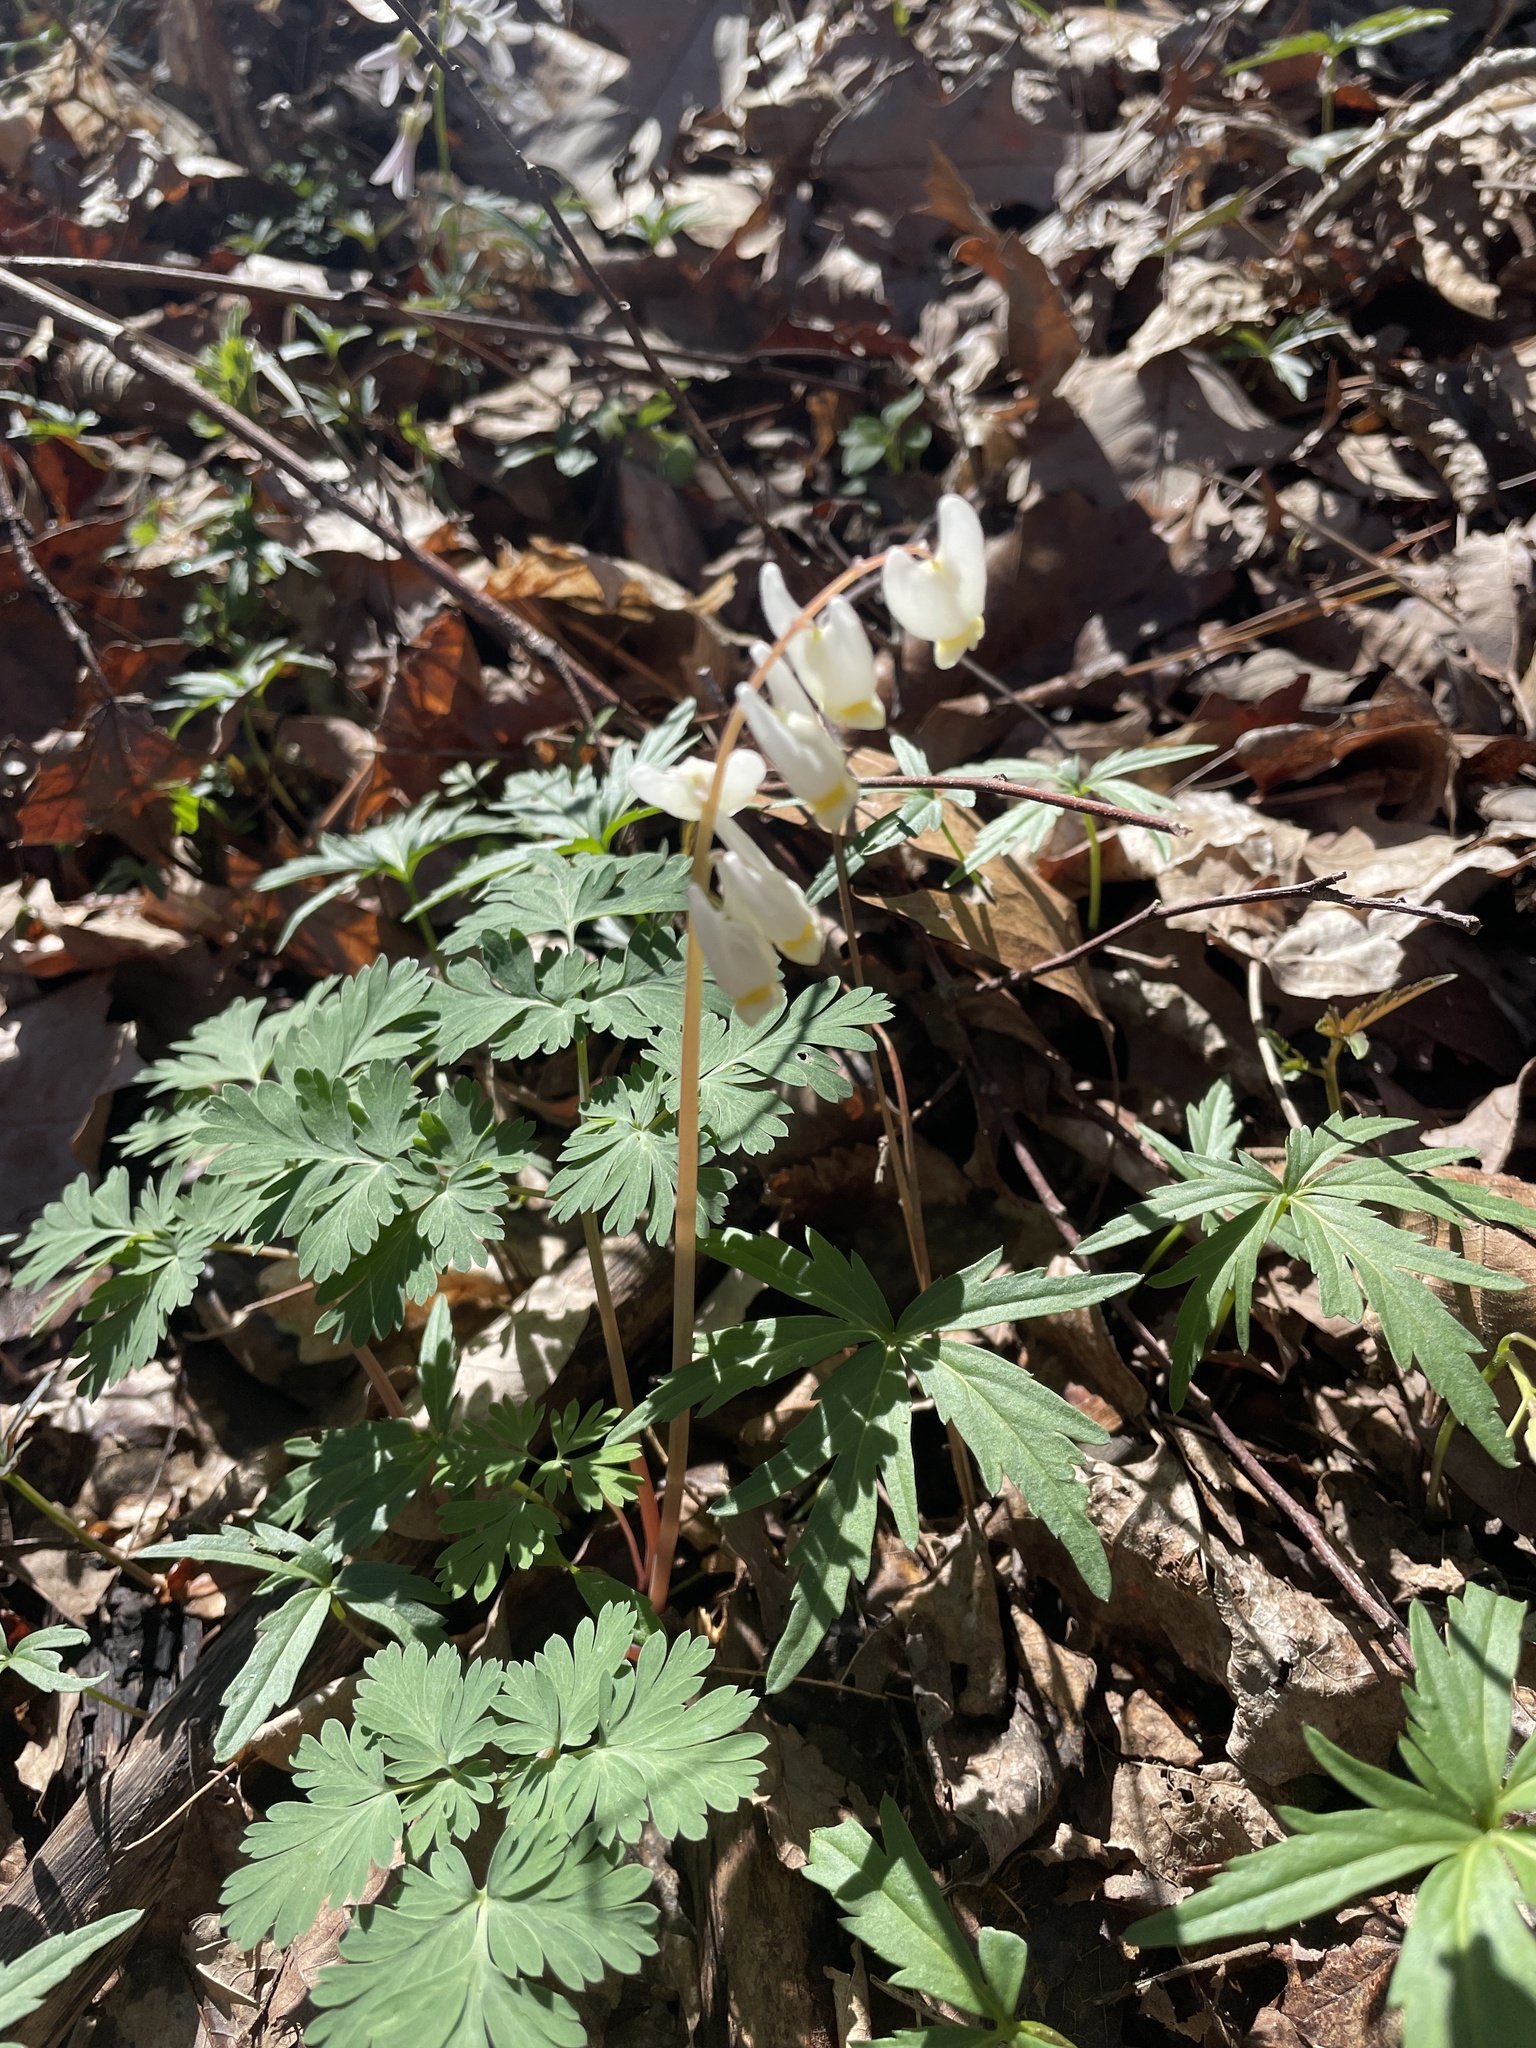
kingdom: Plantae
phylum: Tracheophyta
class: Magnoliopsida
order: Ranunculales
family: Papaveraceae
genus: Dicentra
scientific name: Dicentra cucullaria
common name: Dutchman's breeches
